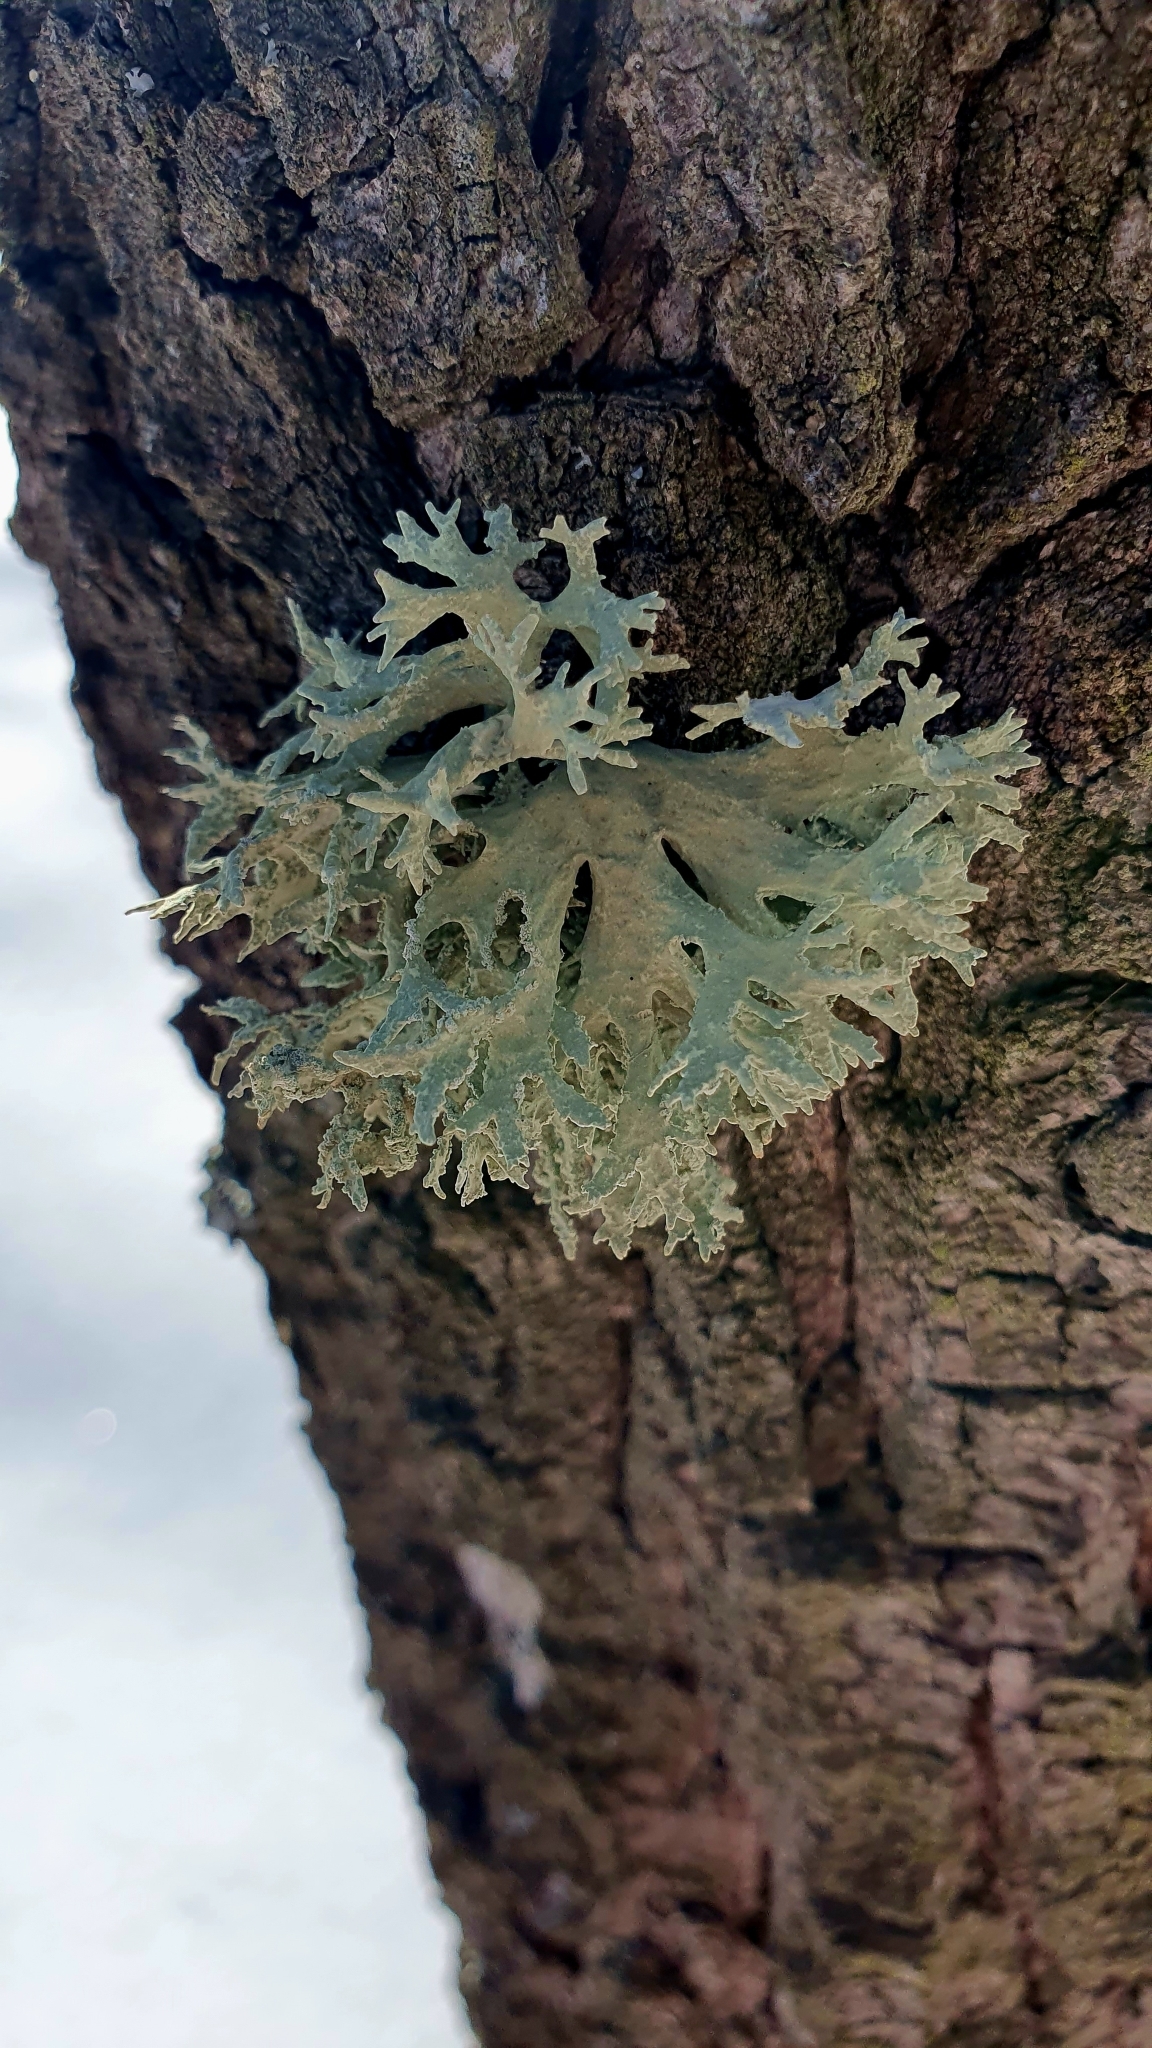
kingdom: Fungi
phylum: Ascomycota
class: Lecanoromycetes
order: Lecanorales
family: Parmeliaceae
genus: Evernia
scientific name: Evernia prunastri
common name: Oak moss
